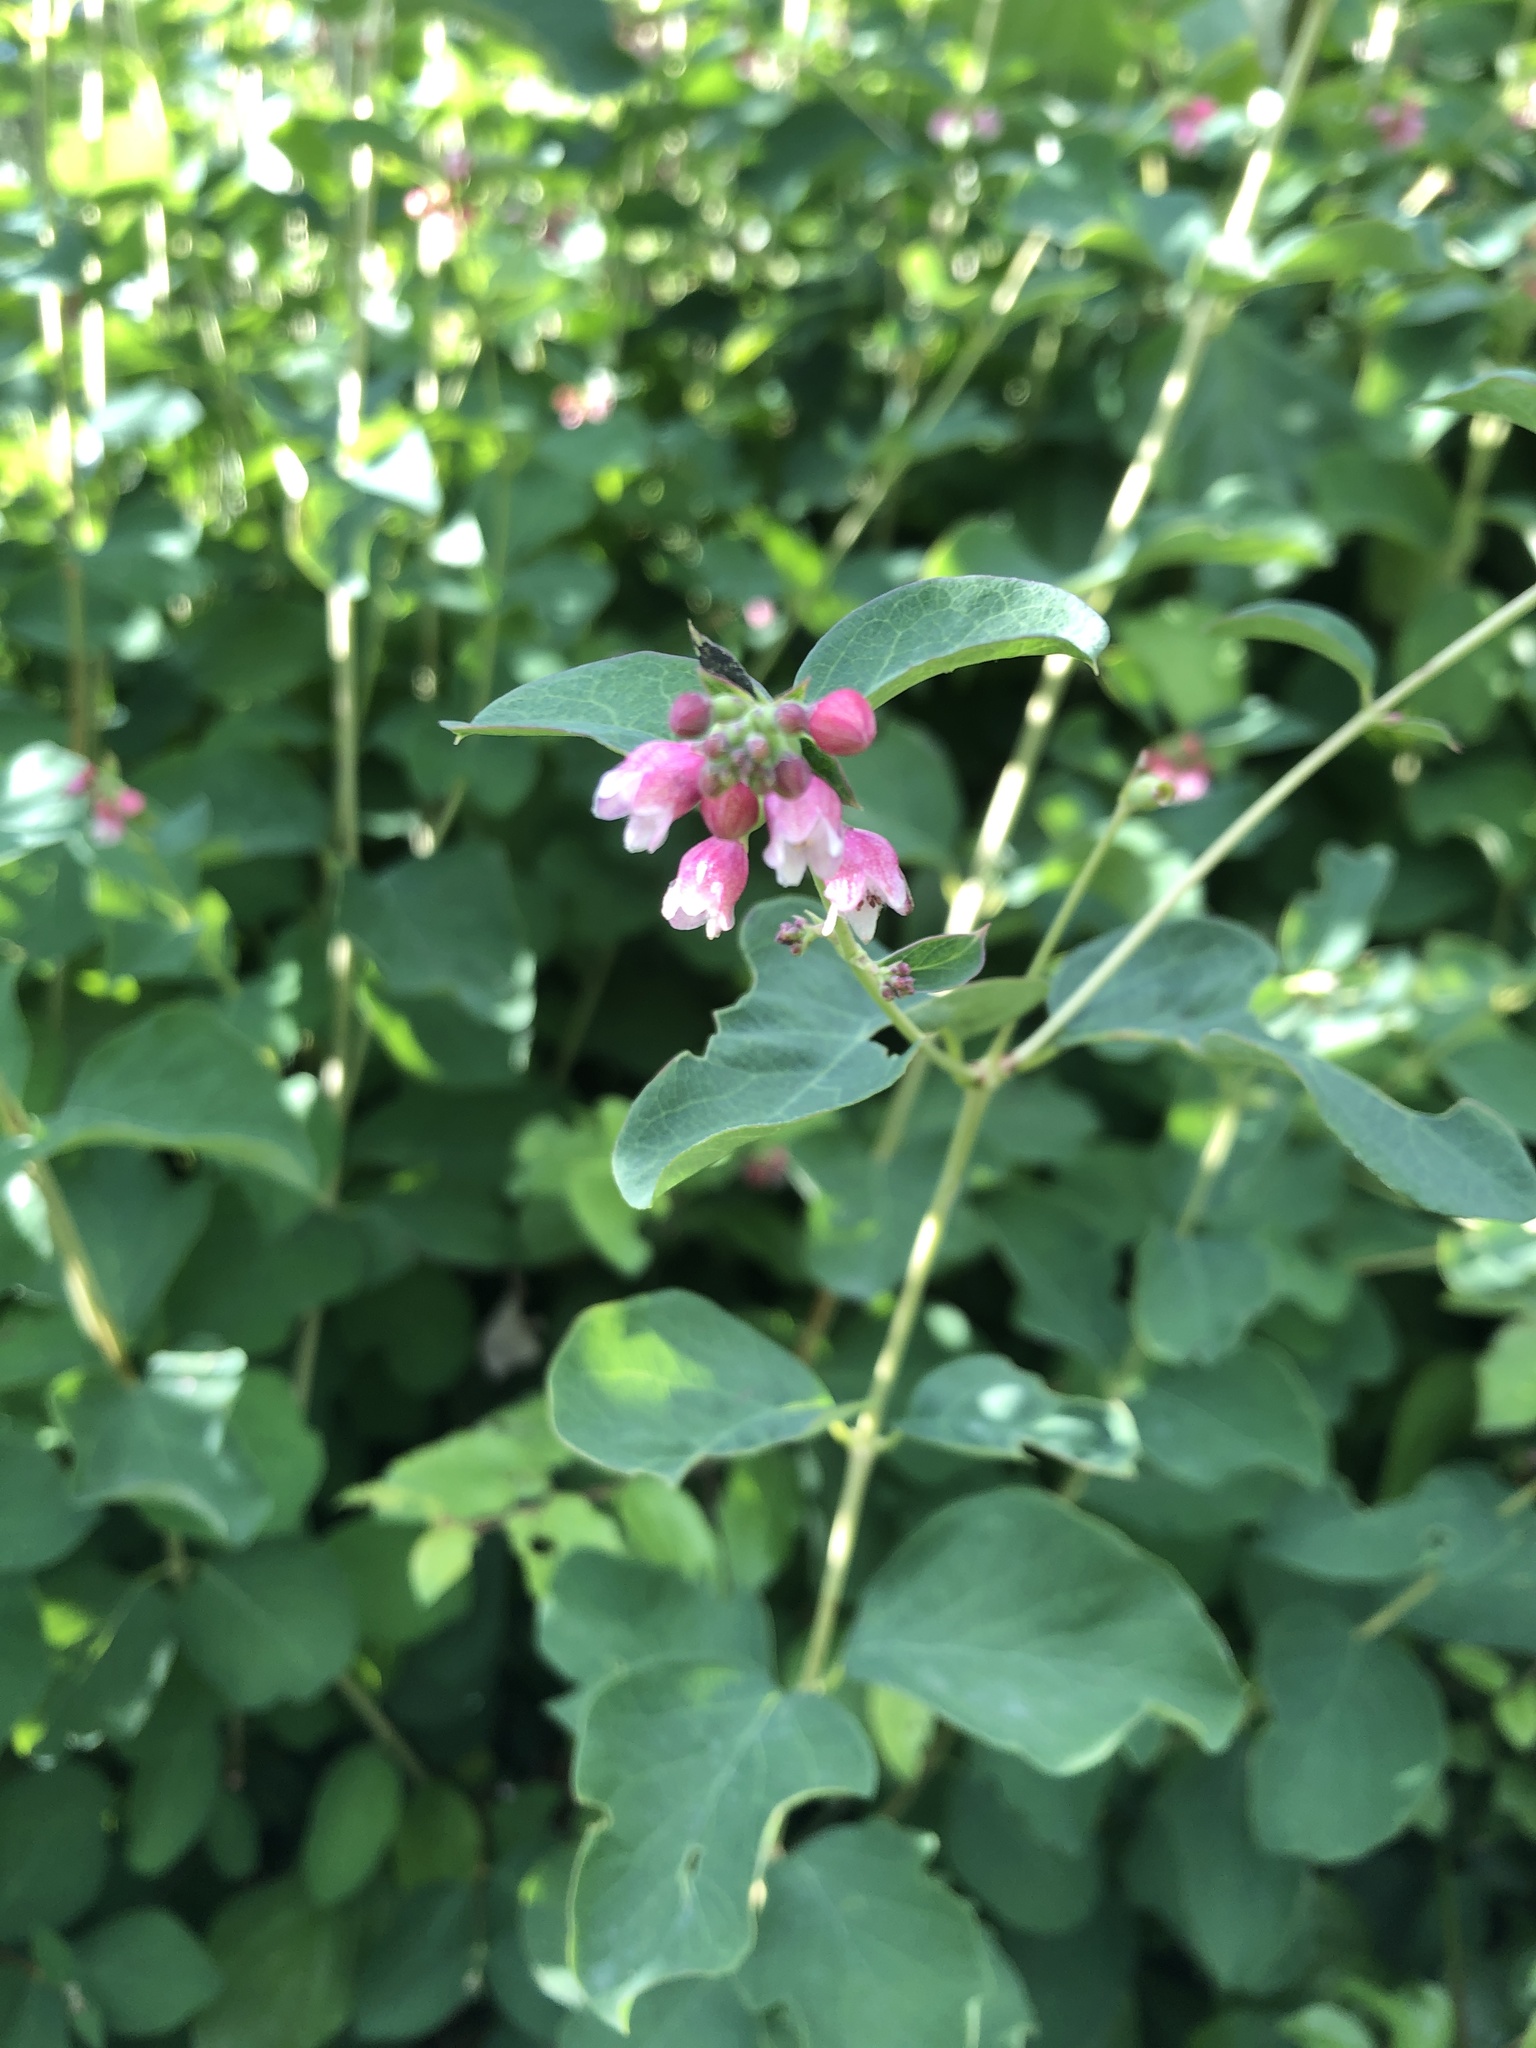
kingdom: Plantae
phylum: Tracheophyta
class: Magnoliopsida
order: Dipsacales
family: Caprifoliaceae
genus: Symphoricarpos
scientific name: Symphoricarpos albus
